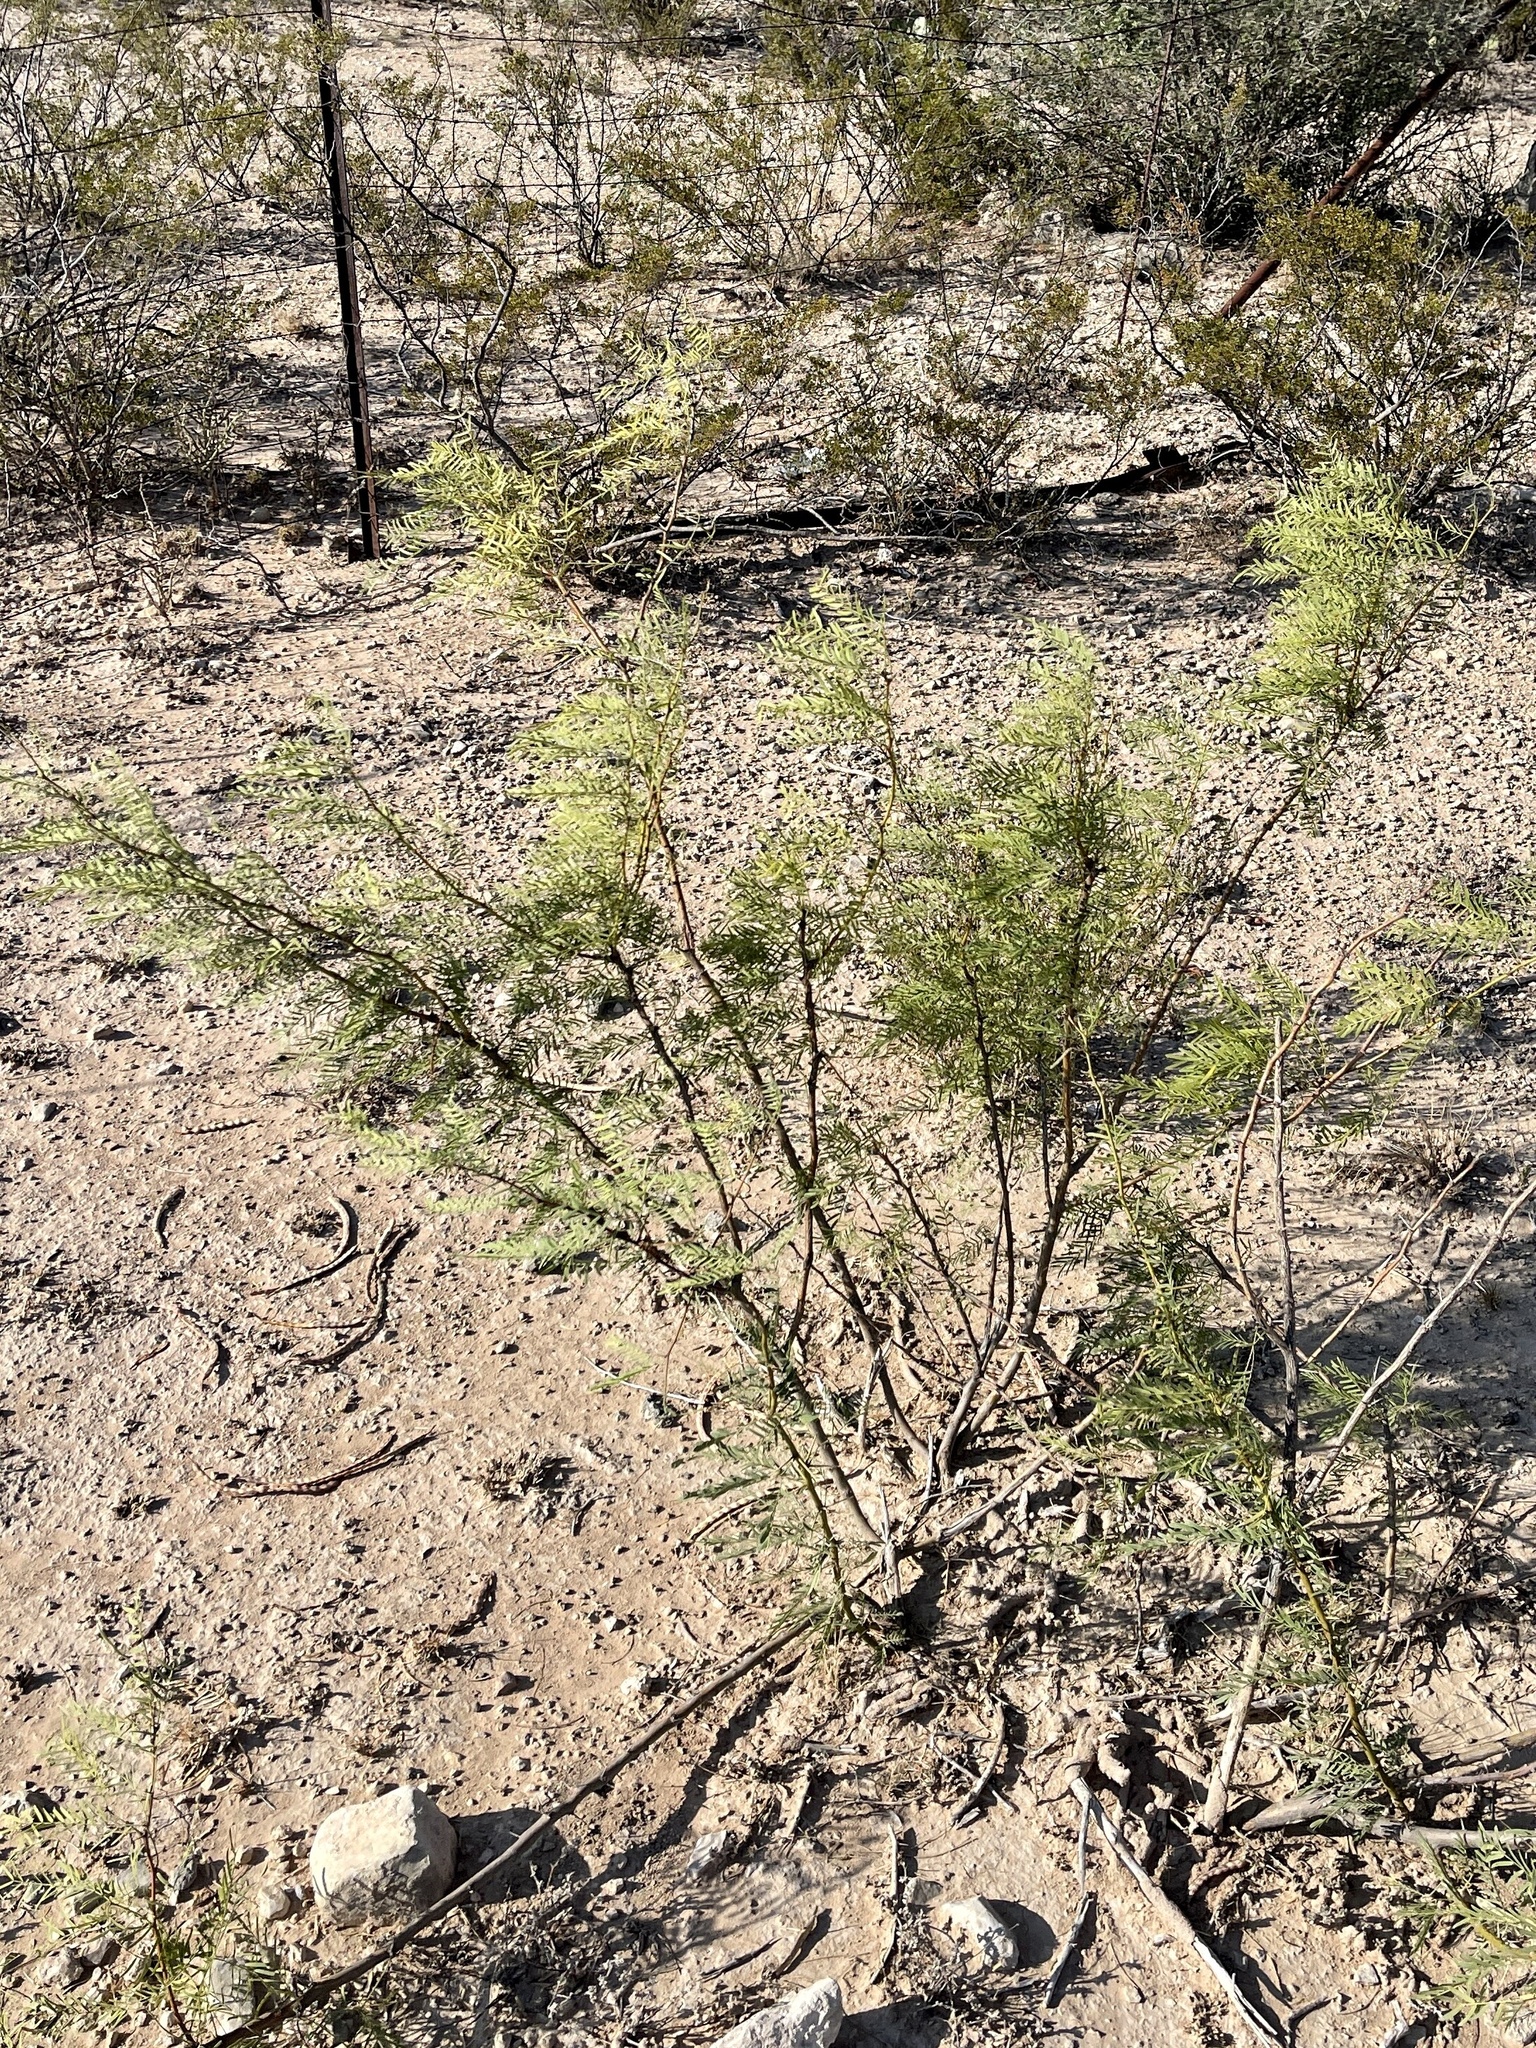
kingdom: Plantae
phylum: Tracheophyta
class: Magnoliopsida
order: Fabales
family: Fabaceae
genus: Prosopis
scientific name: Prosopis glandulosa
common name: Honey mesquite
